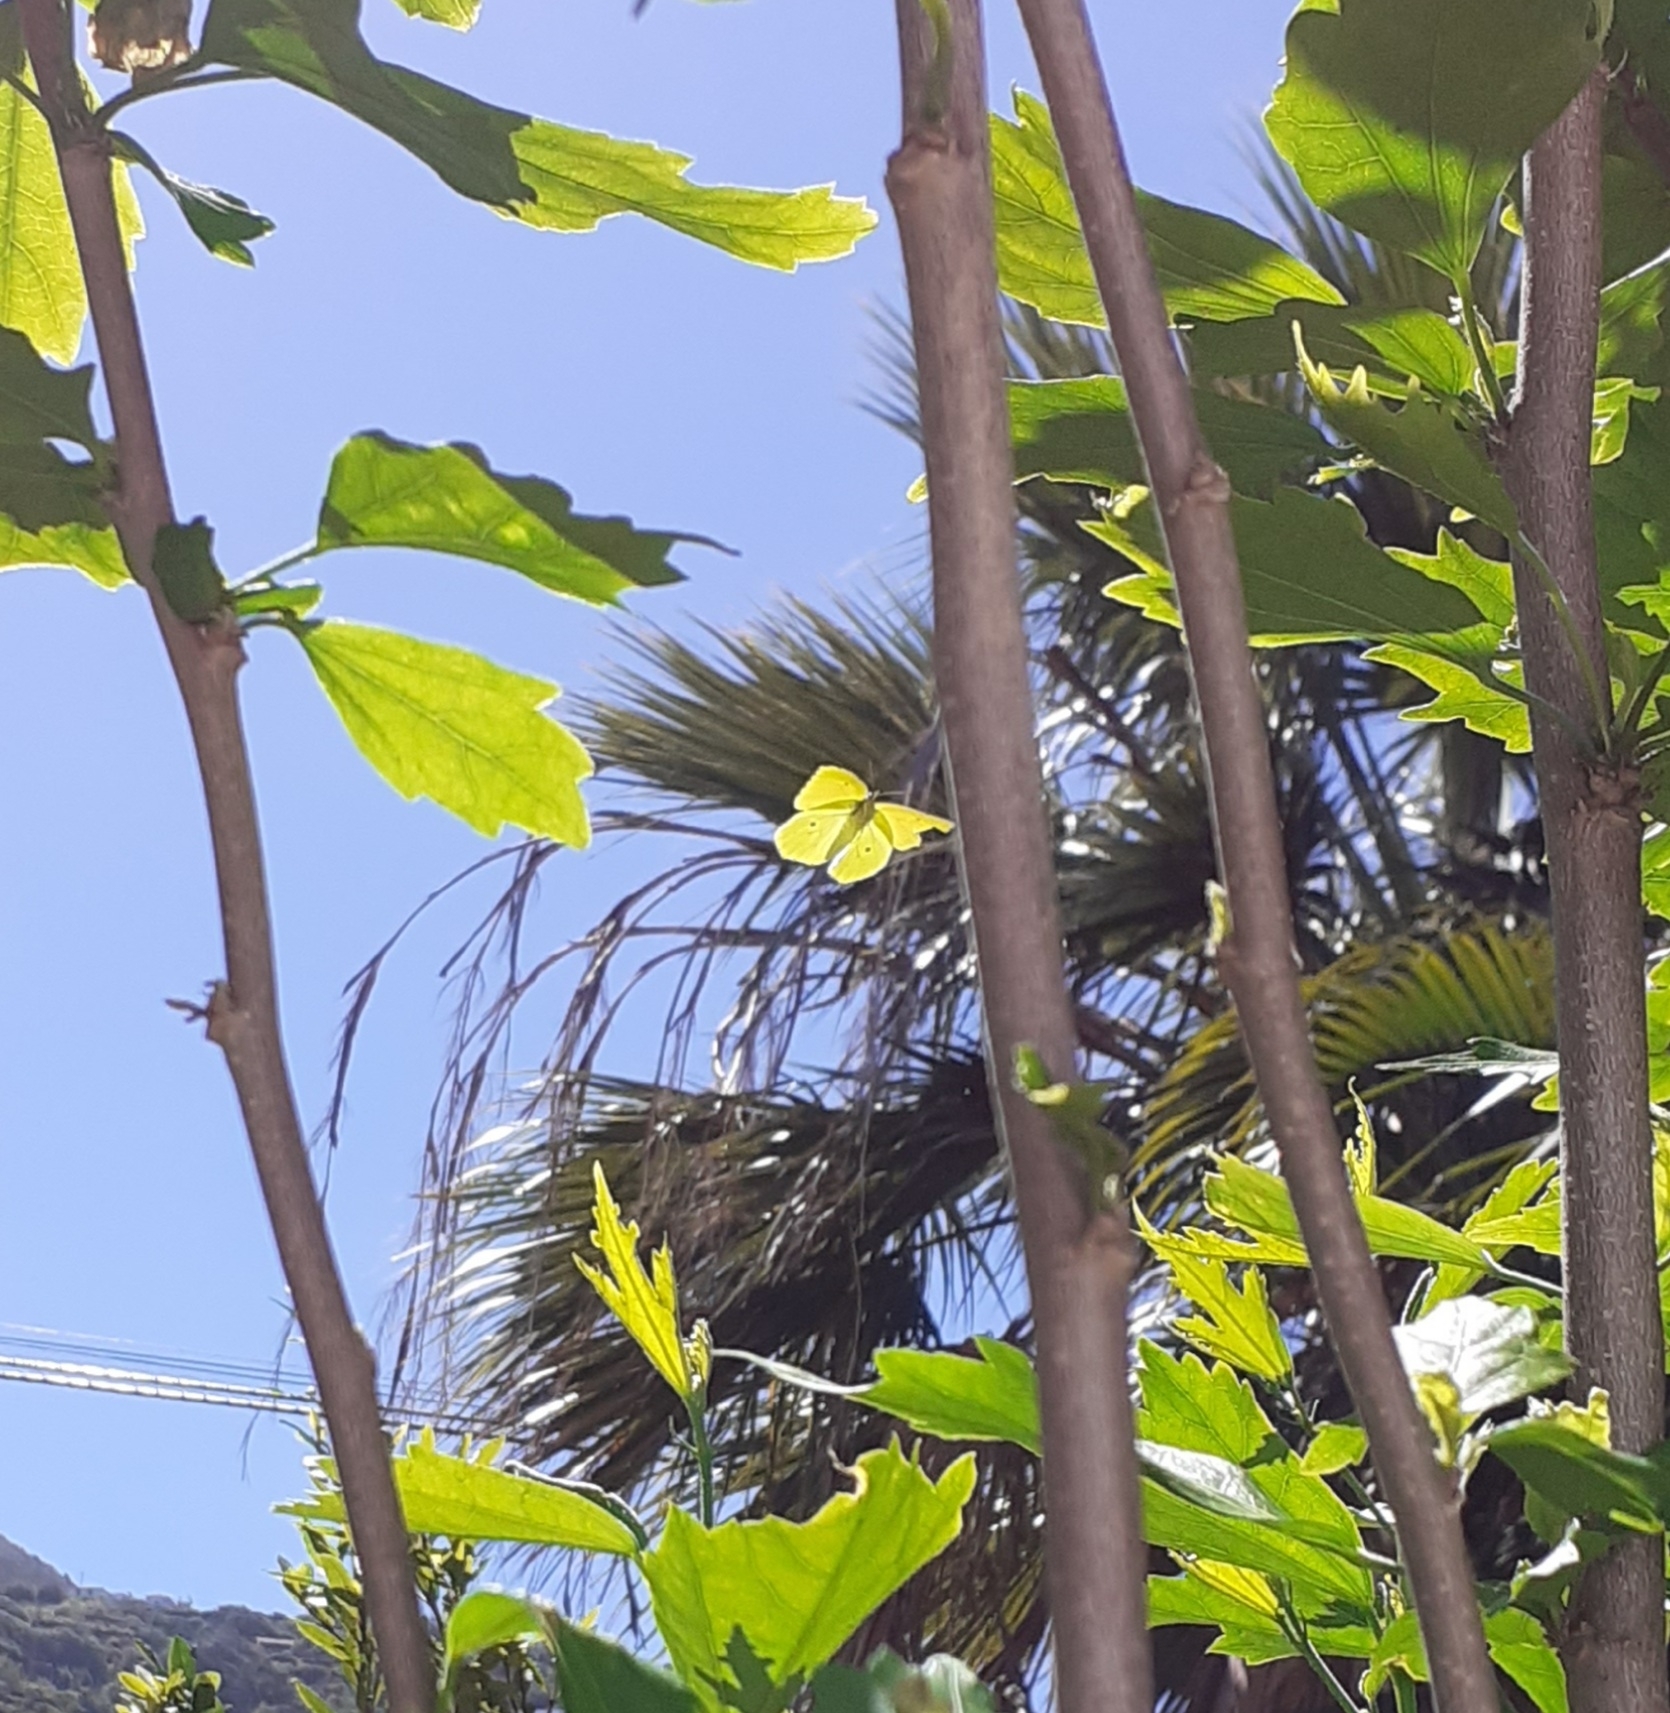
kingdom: Animalia
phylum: Arthropoda
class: Insecta
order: Lepidoptera
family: Pieridae
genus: Gonepteryx
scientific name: Gonepteryx cleobule
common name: Canary brimstone
